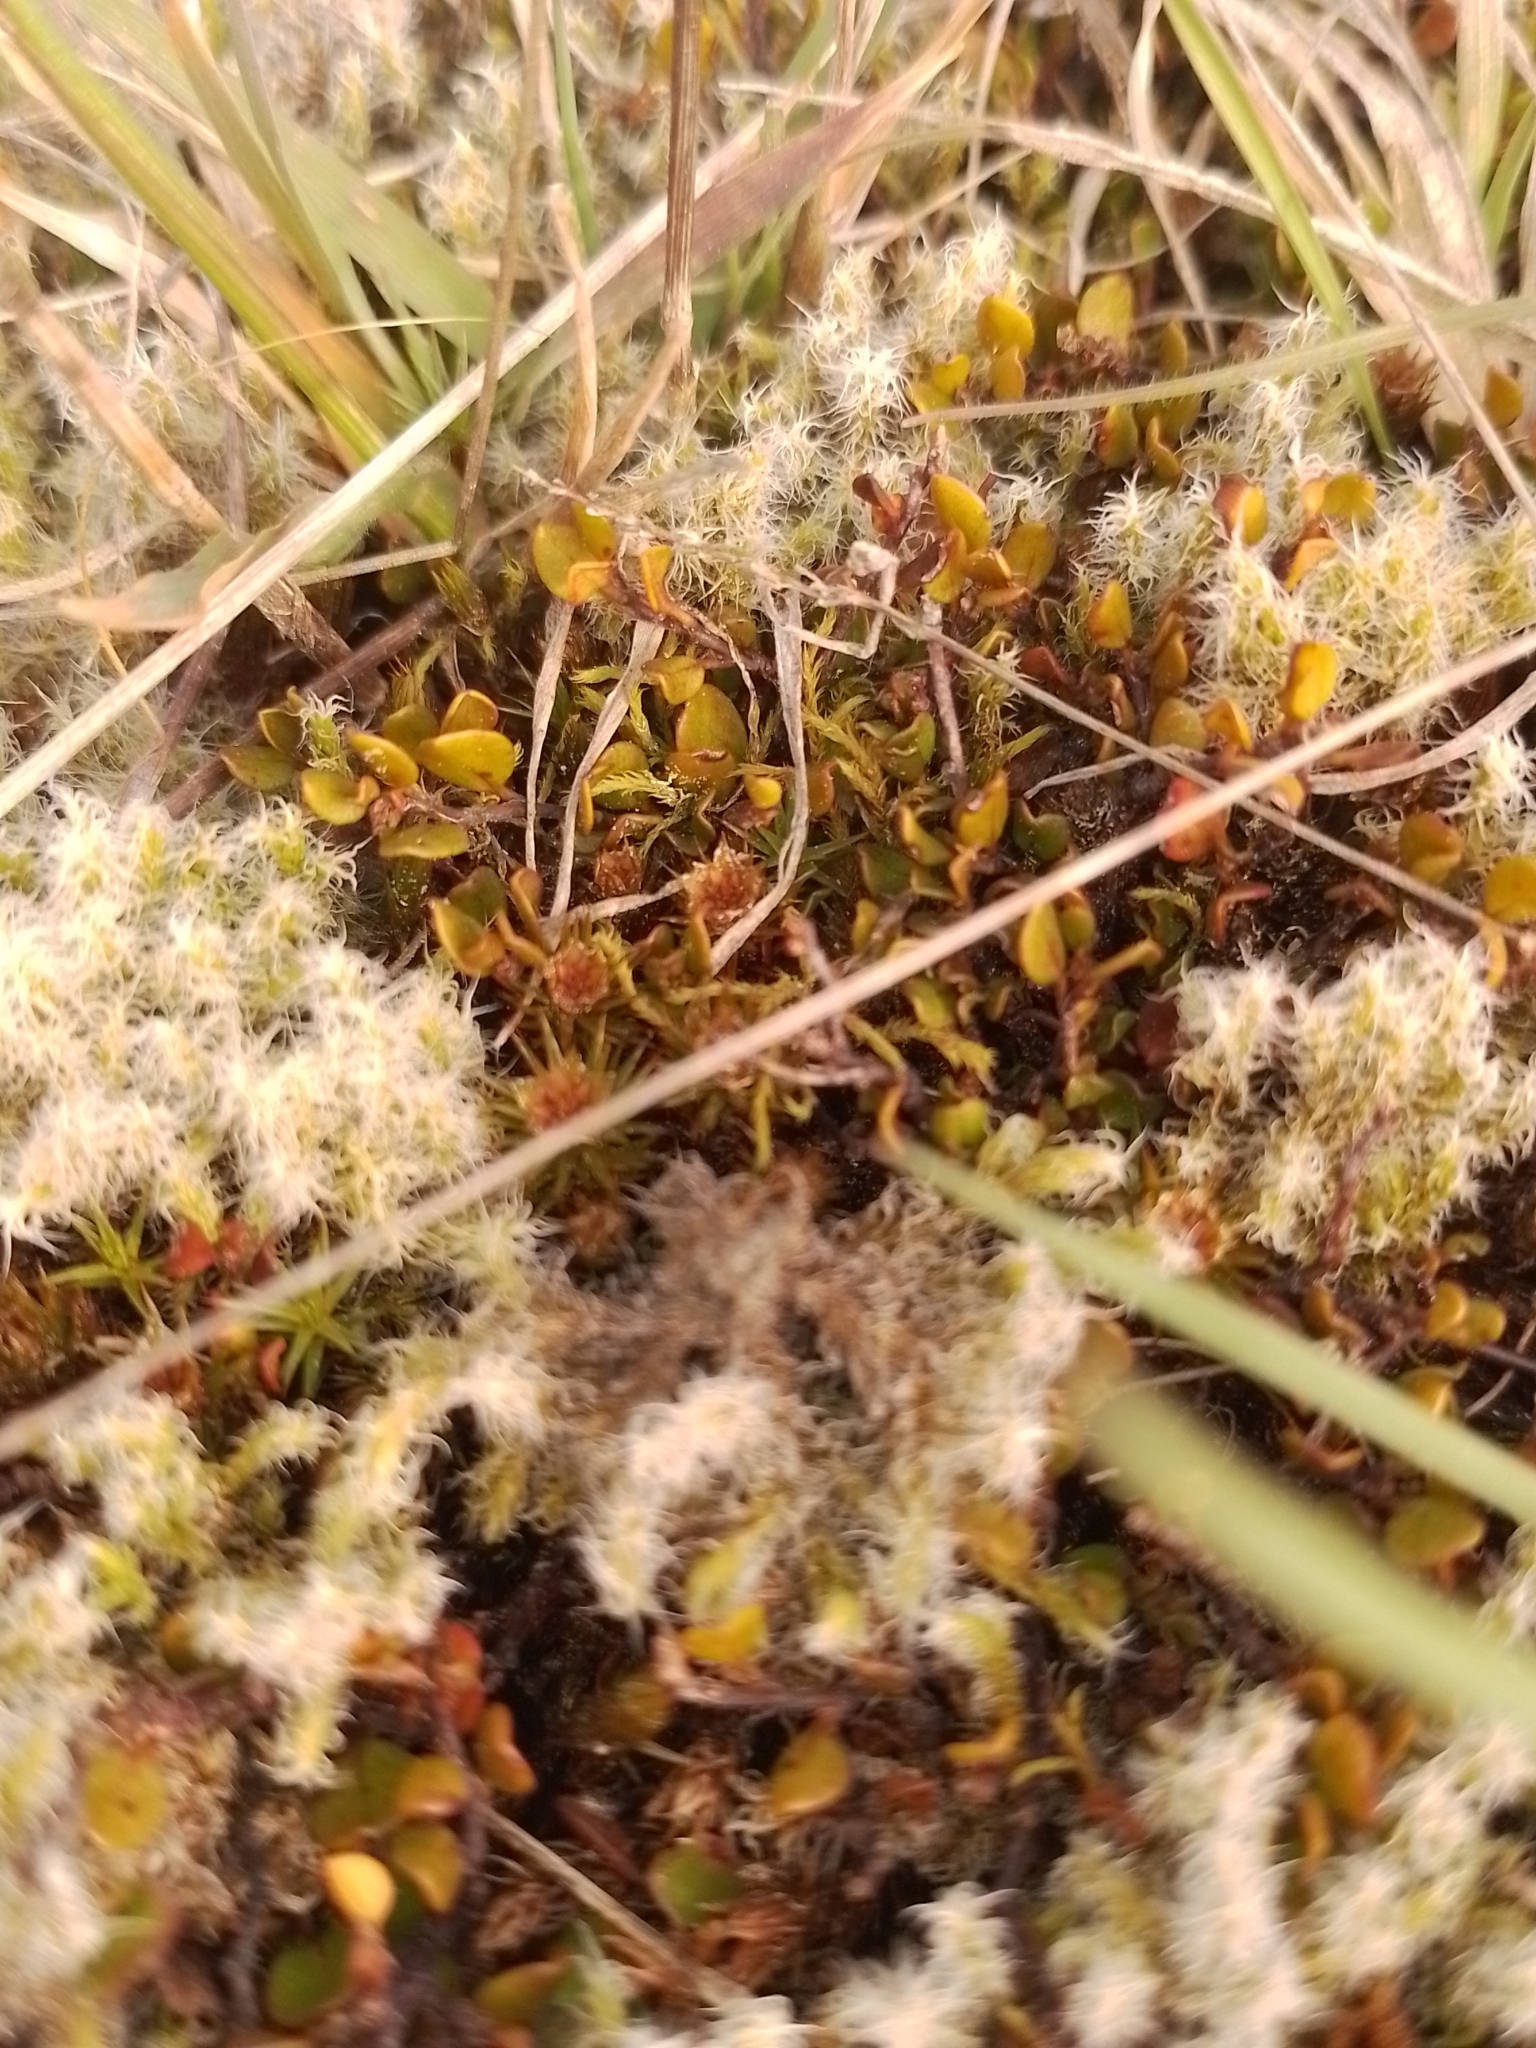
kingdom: Plantae
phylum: Tracheophyta
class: Magnoliopsida
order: Caryophyllales
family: Polygonaceae
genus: Muehlenbeckia
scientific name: Muehlenbeckia axillaris
